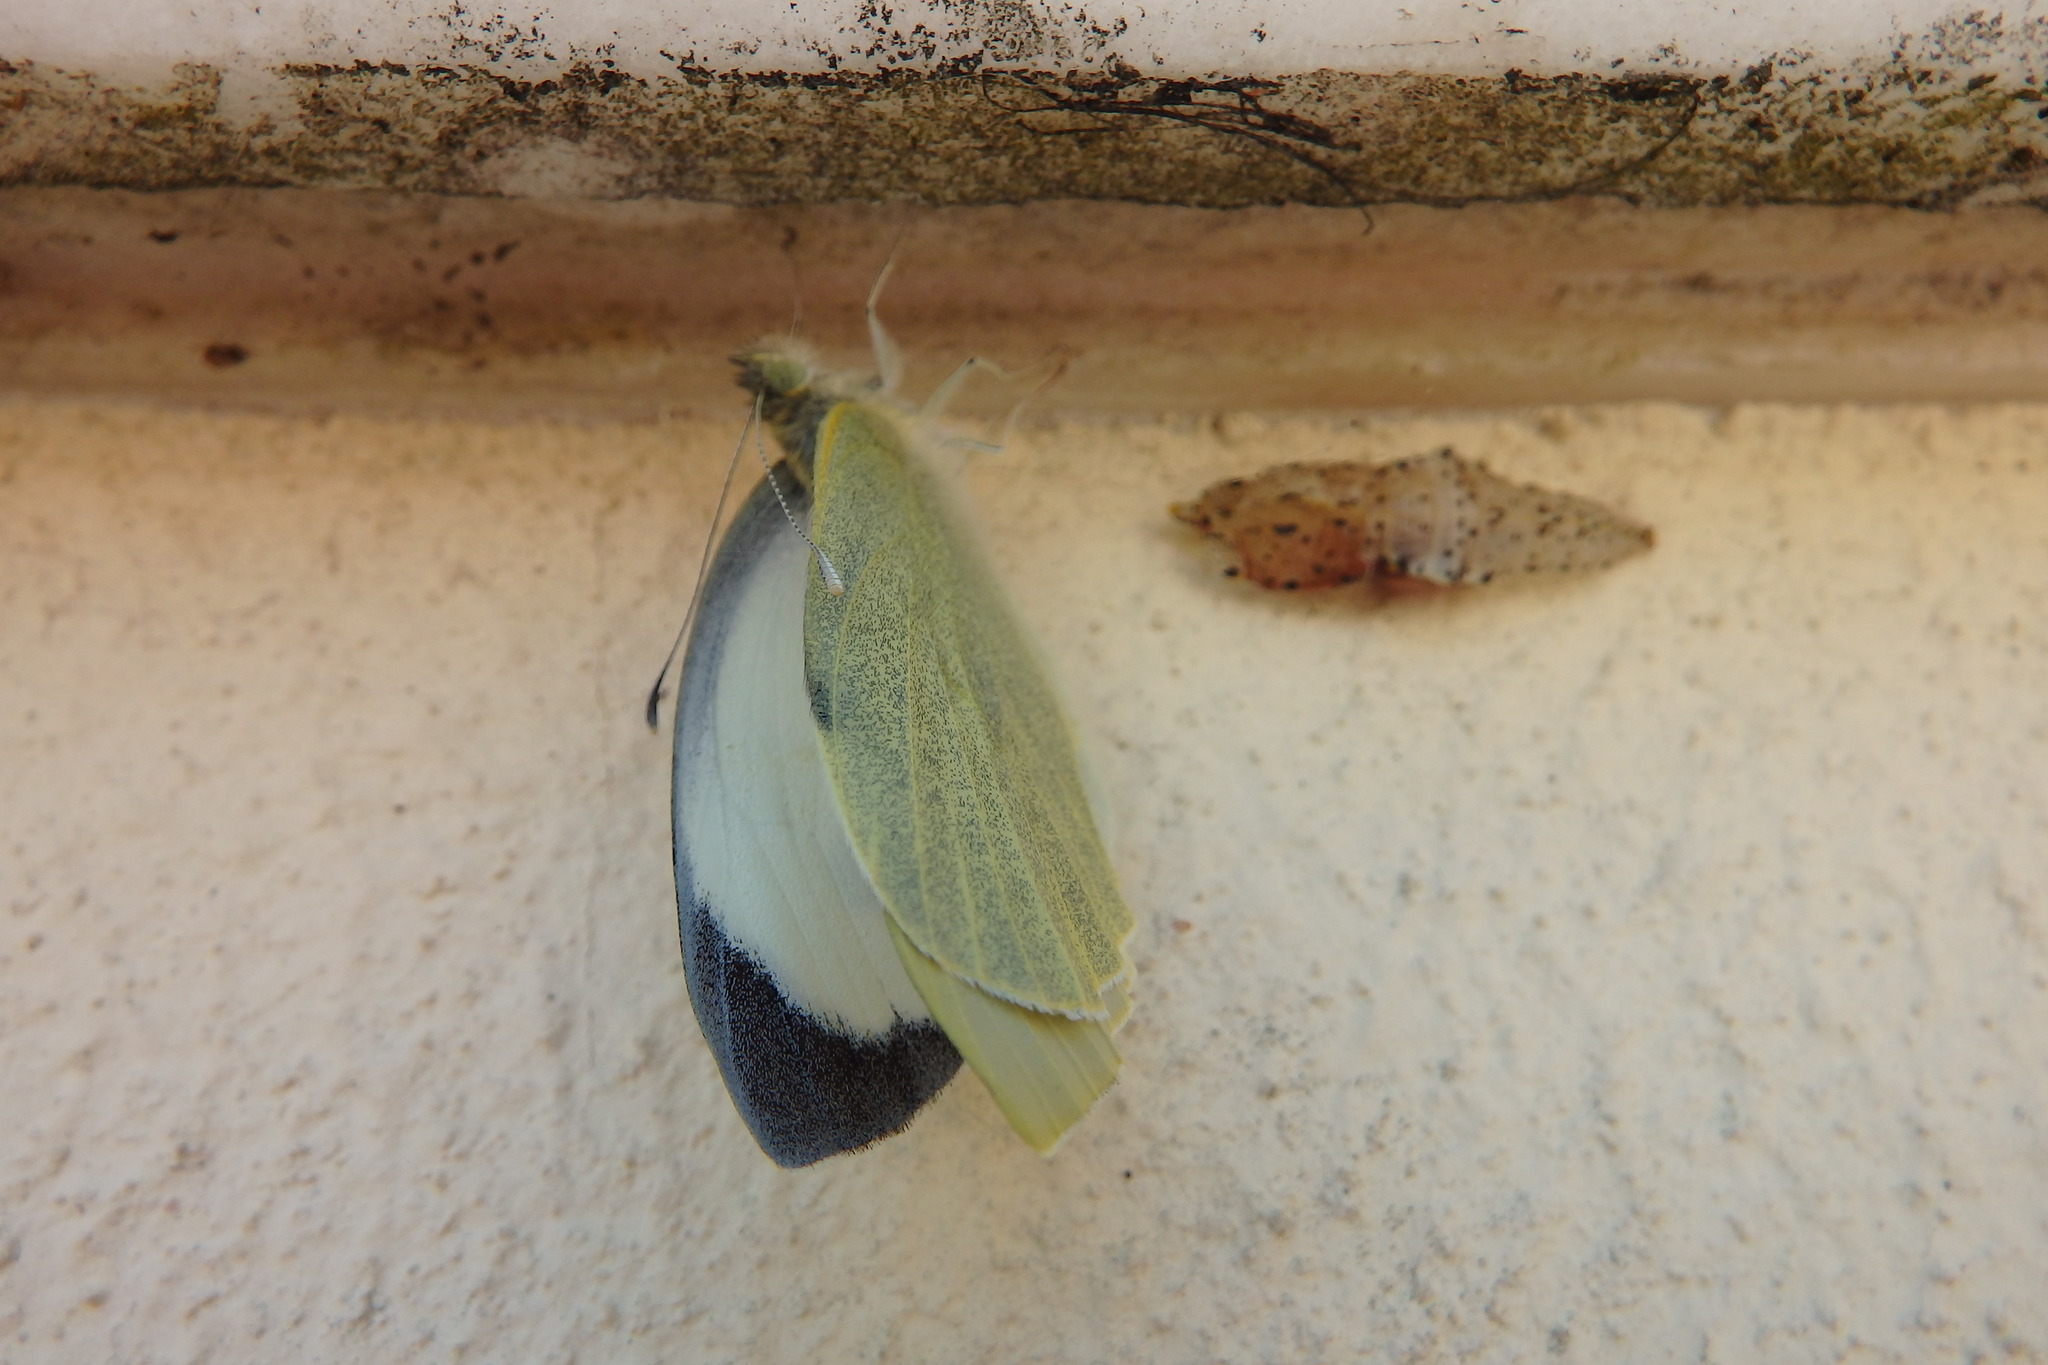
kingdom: Animalia
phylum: Arthropoda
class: Insecta
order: Lepidoptera
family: Pieridae
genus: Pieris
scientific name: Pieris brassicae
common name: Large white
